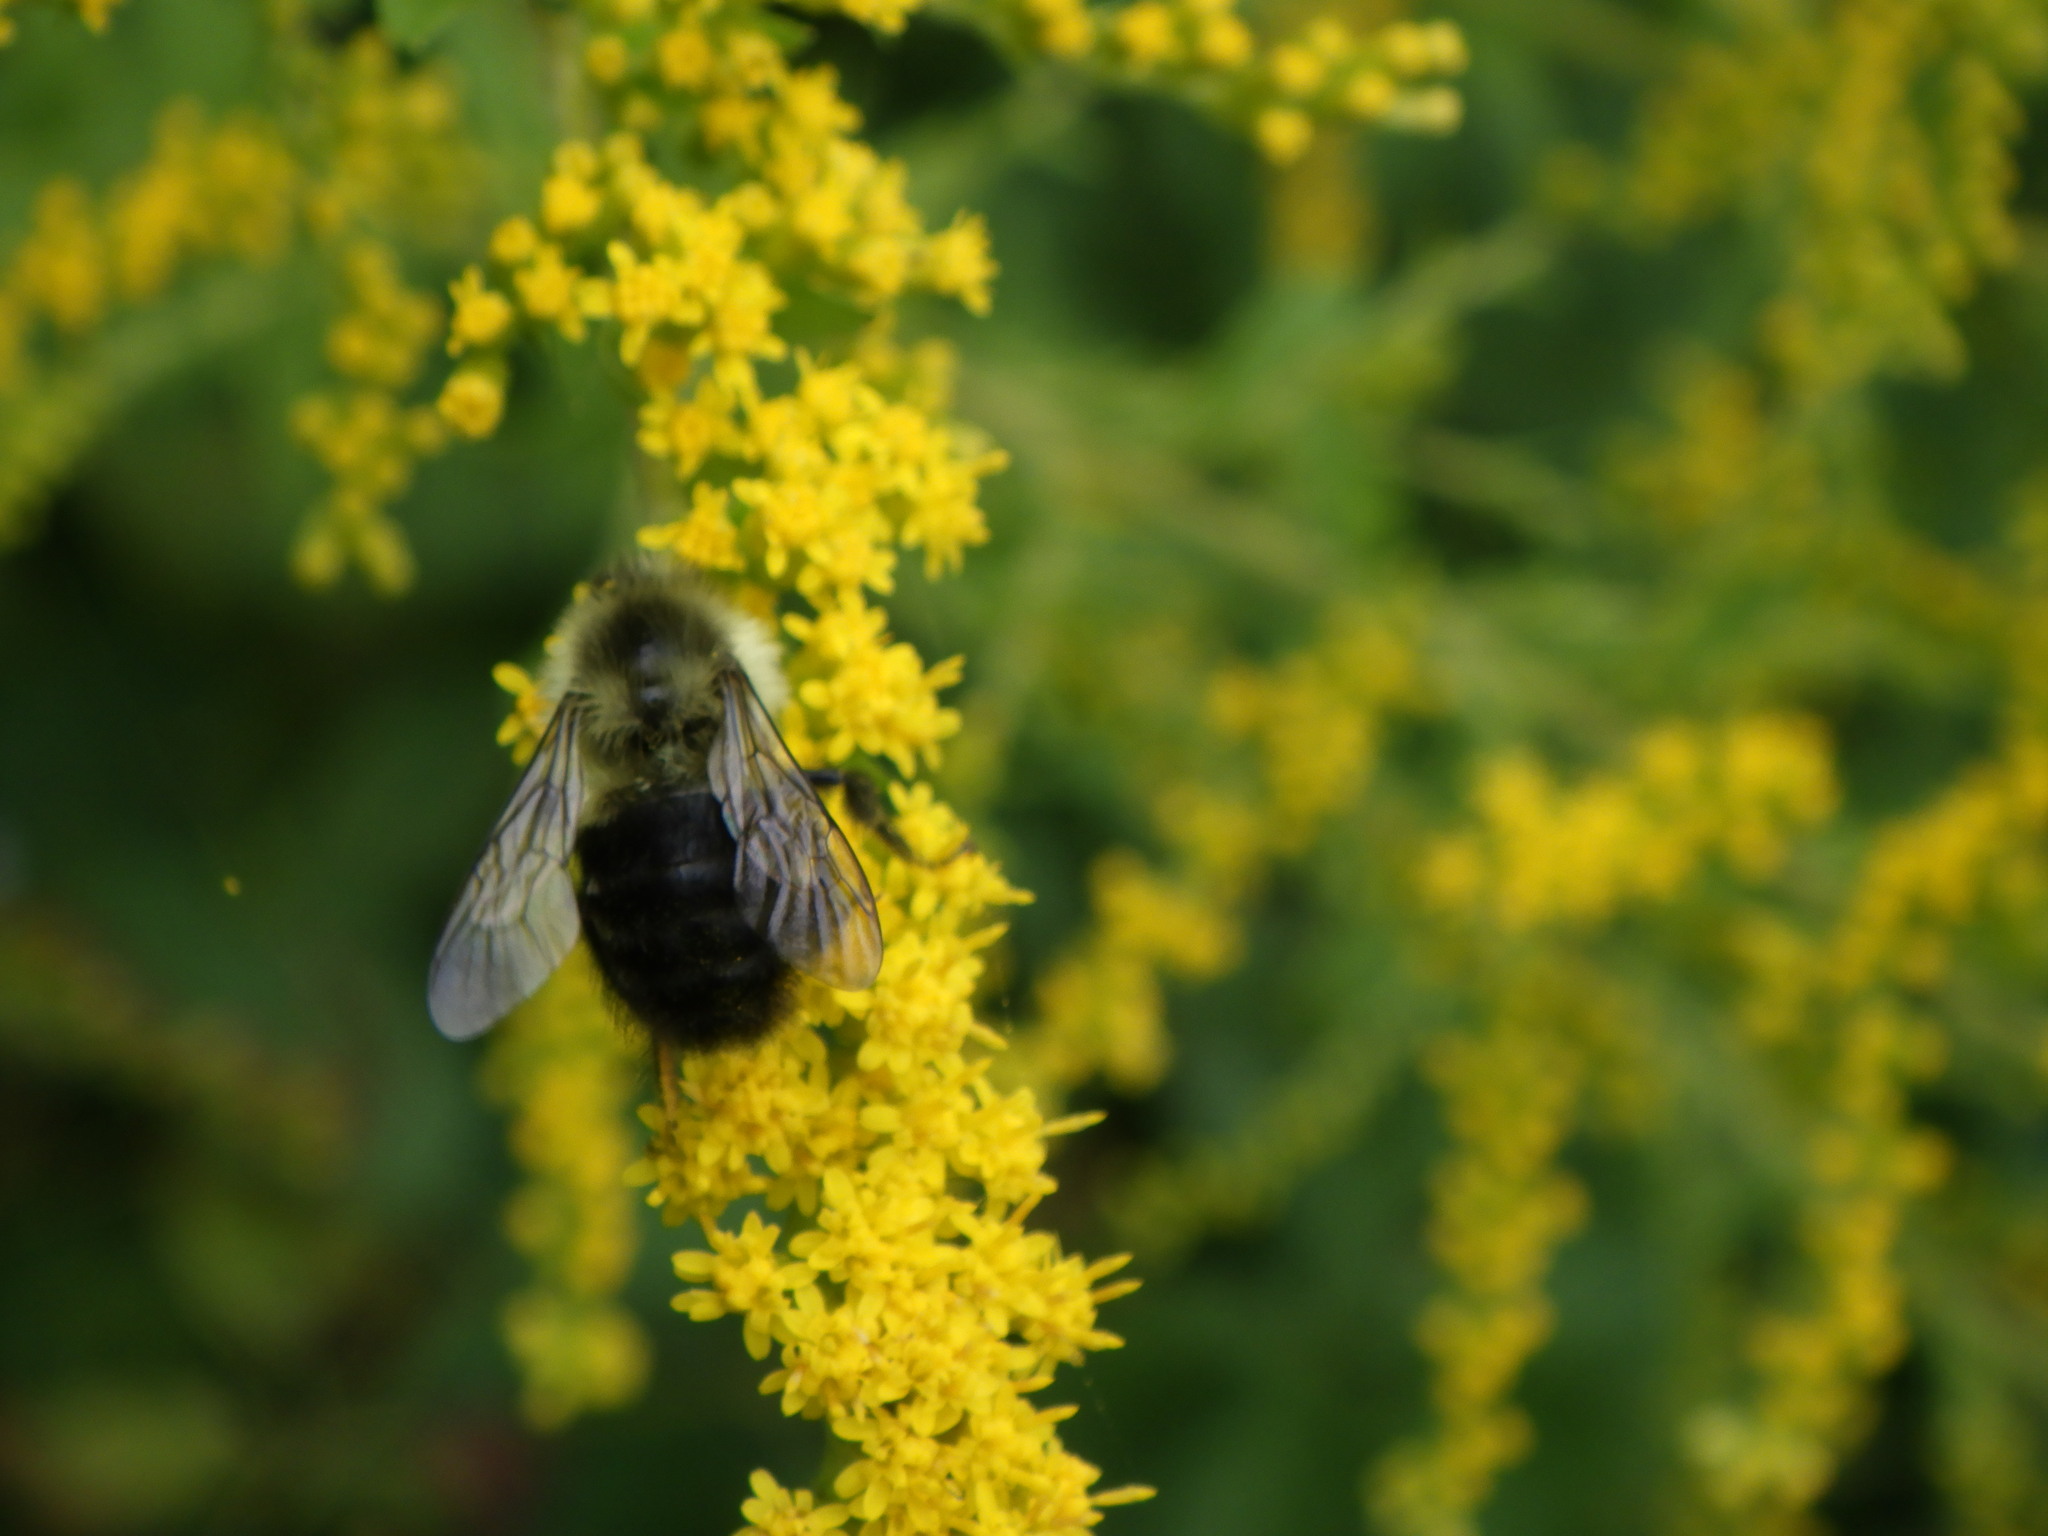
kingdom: Animalia
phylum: Arthropoda
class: Insecta
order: Hymenoptera
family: Apidae
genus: Bombus
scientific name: Bombus impatiens
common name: Common eastern bumble bee
